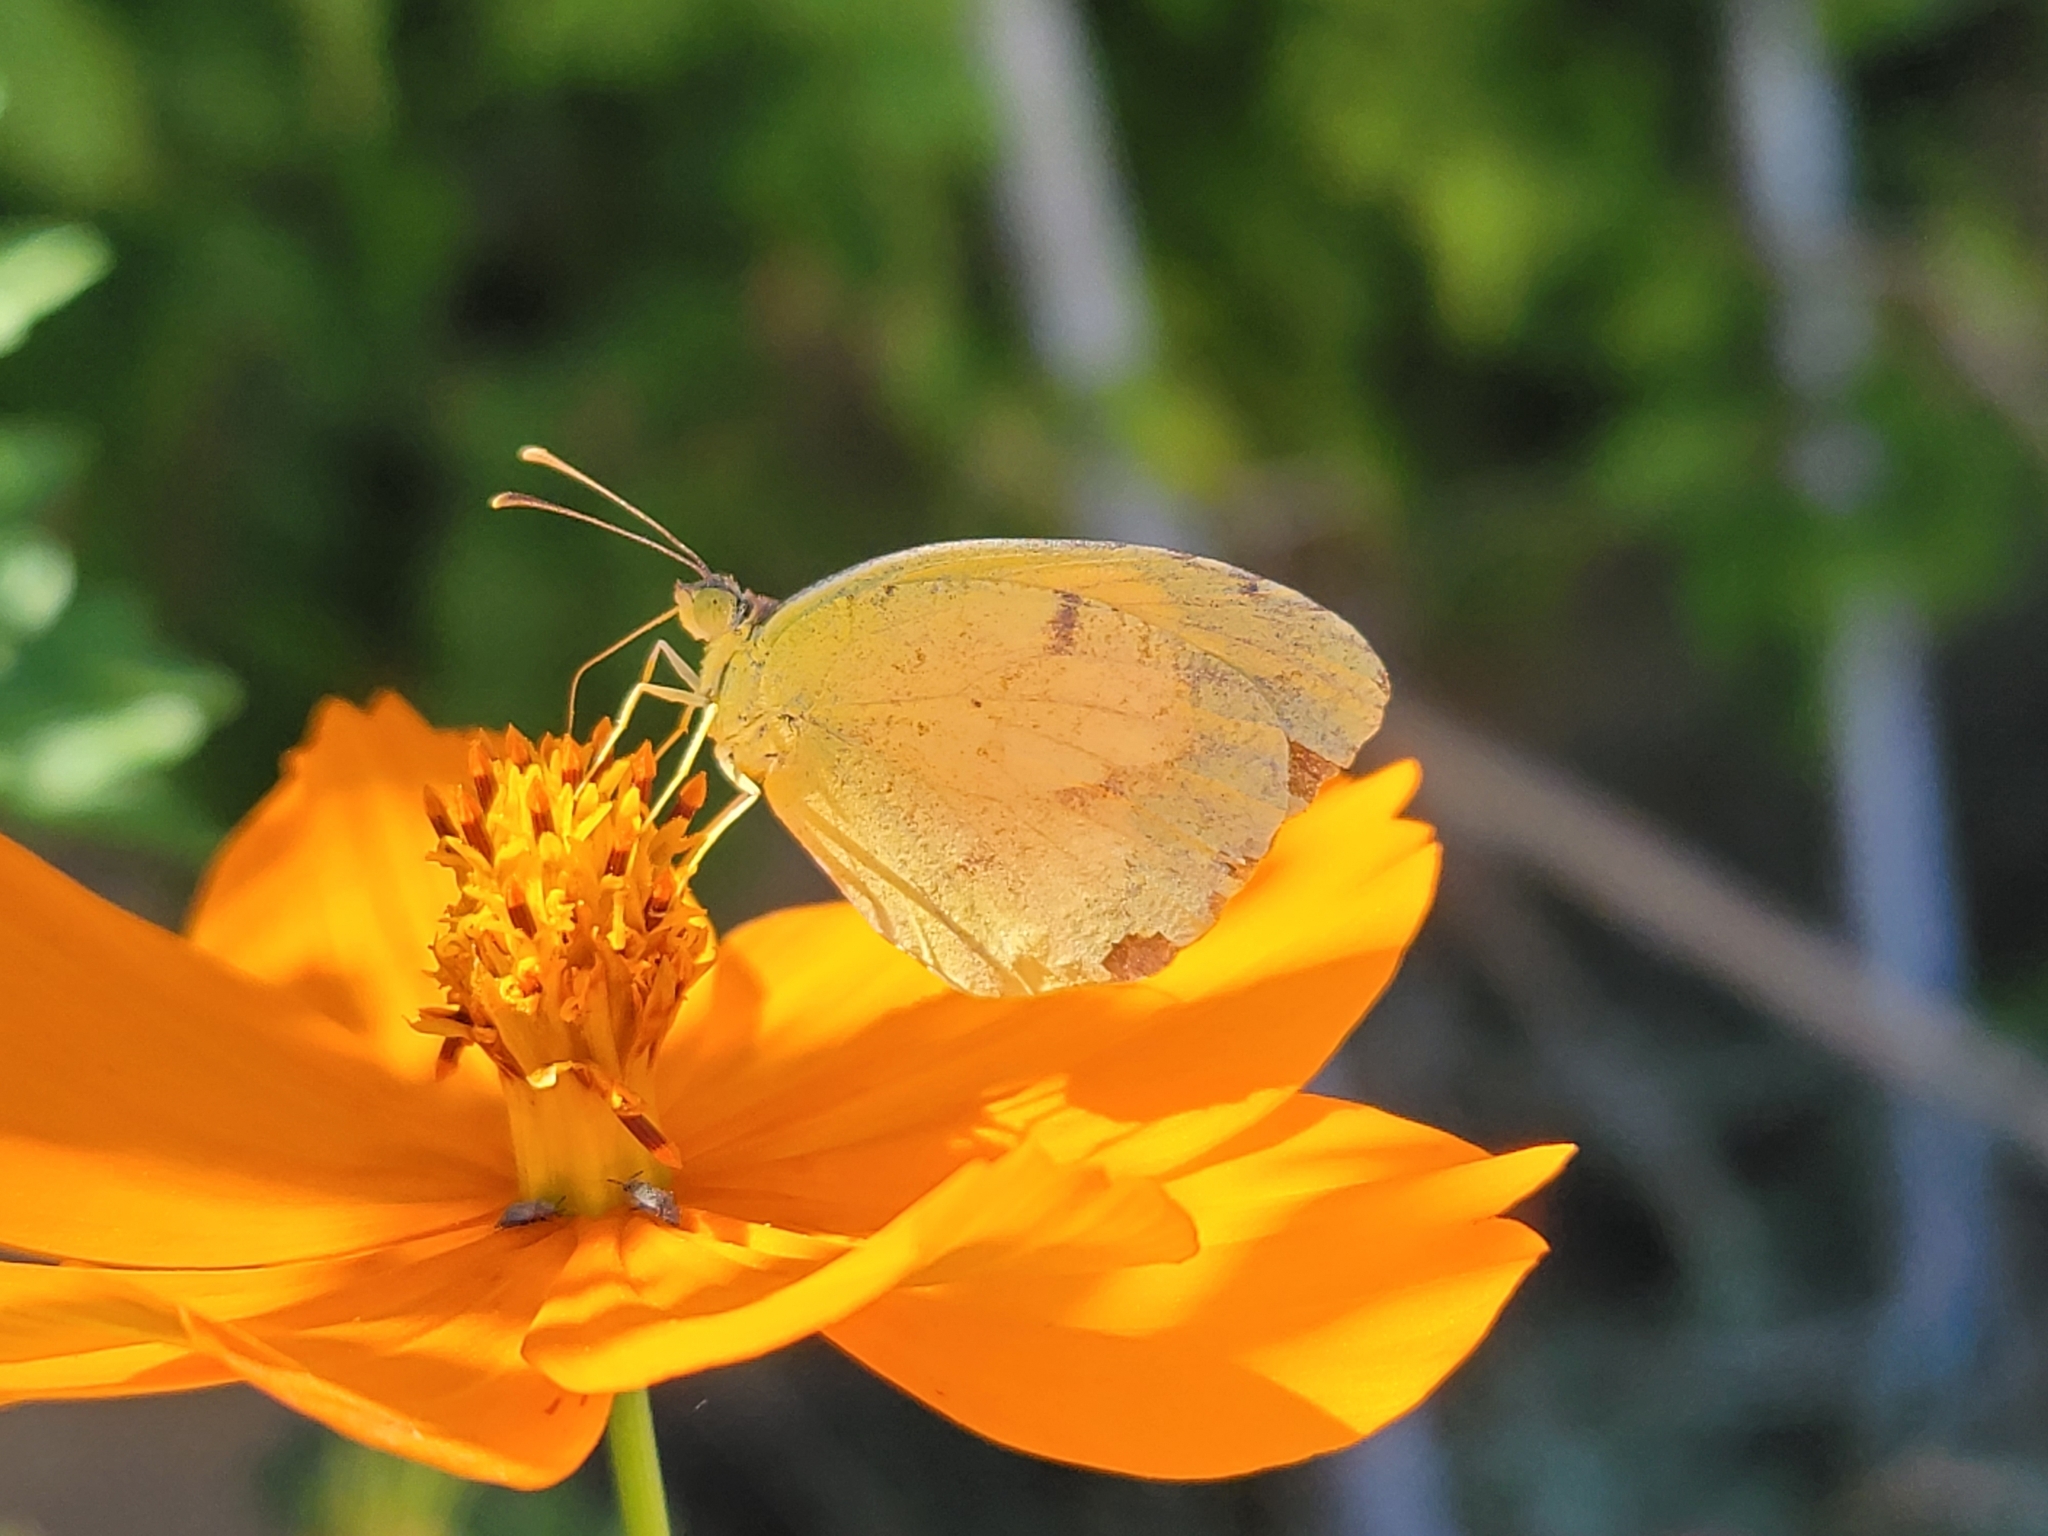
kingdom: Animalia
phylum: Arthropoda
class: Insecta
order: Lepidoptera
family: Pieridae
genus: Abaeis
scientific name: Abaeis nicippe
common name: Sleepy orange
